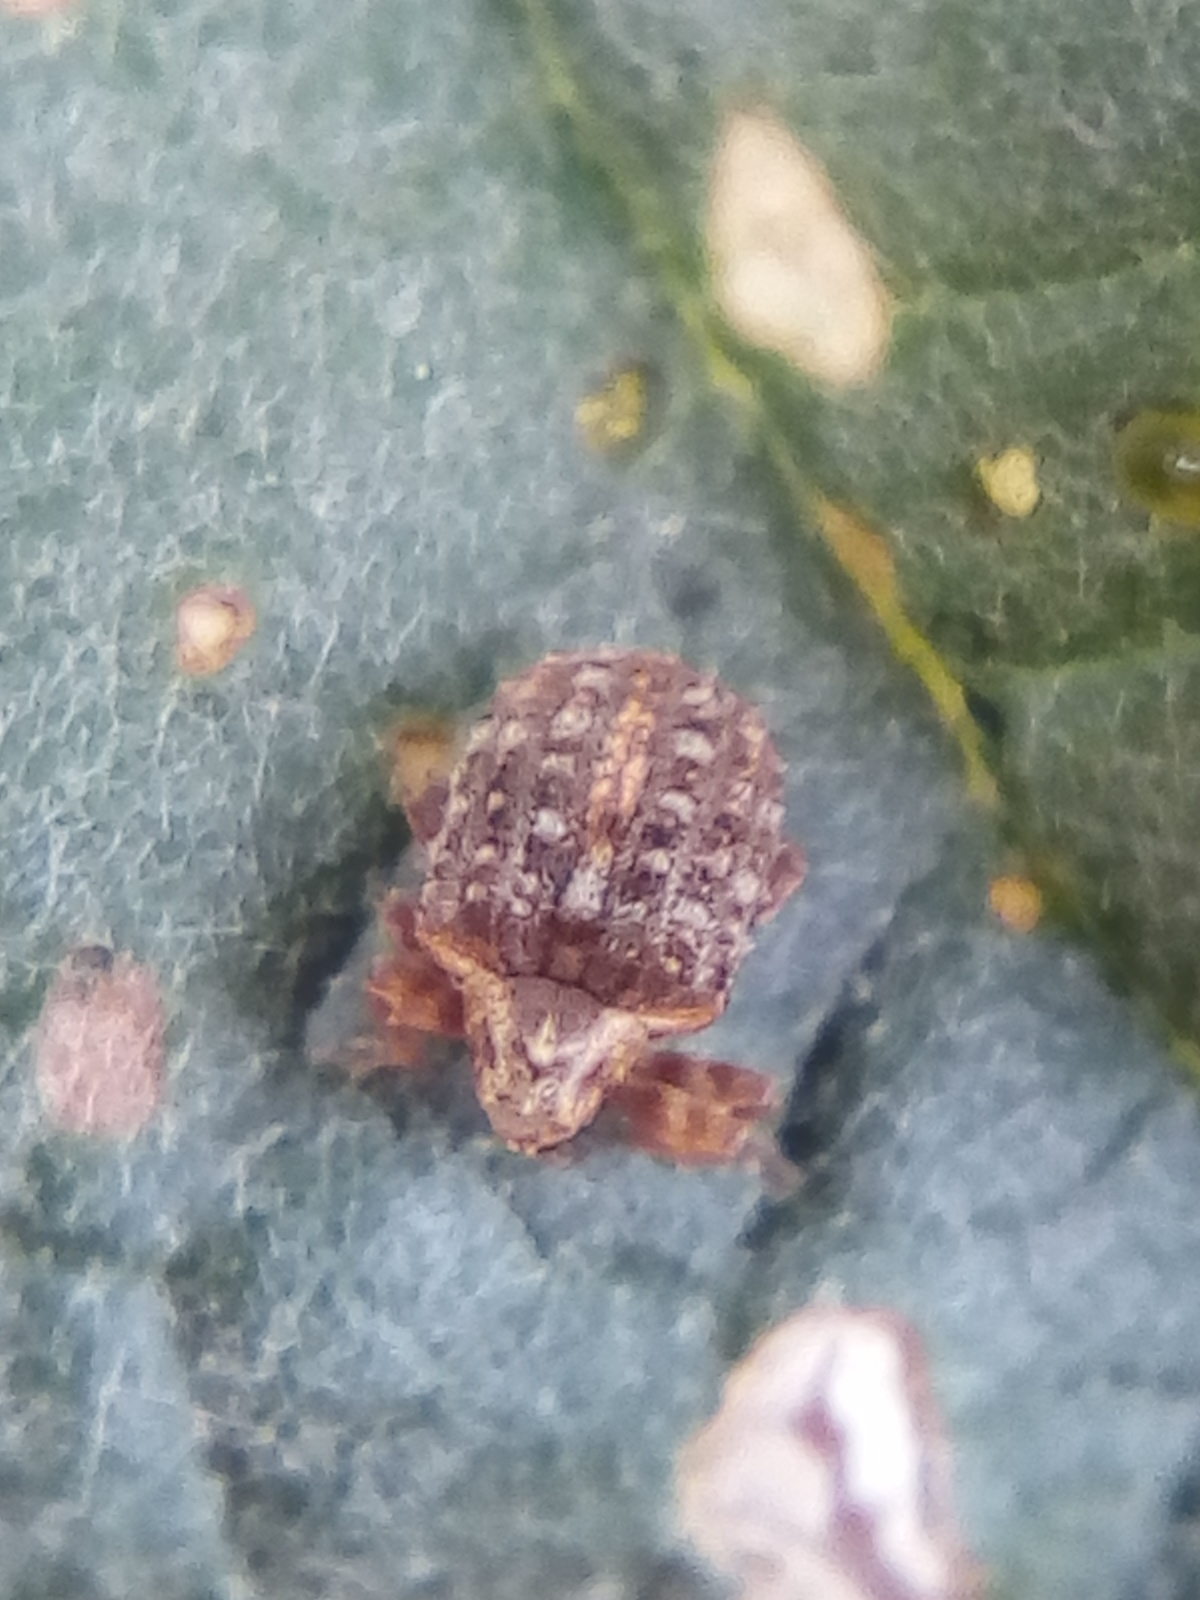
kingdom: Animalia
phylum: Arthropoda
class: Insecta
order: Coleoptera
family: Curculionidae
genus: Cleopus
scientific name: Cleopus japonicus
